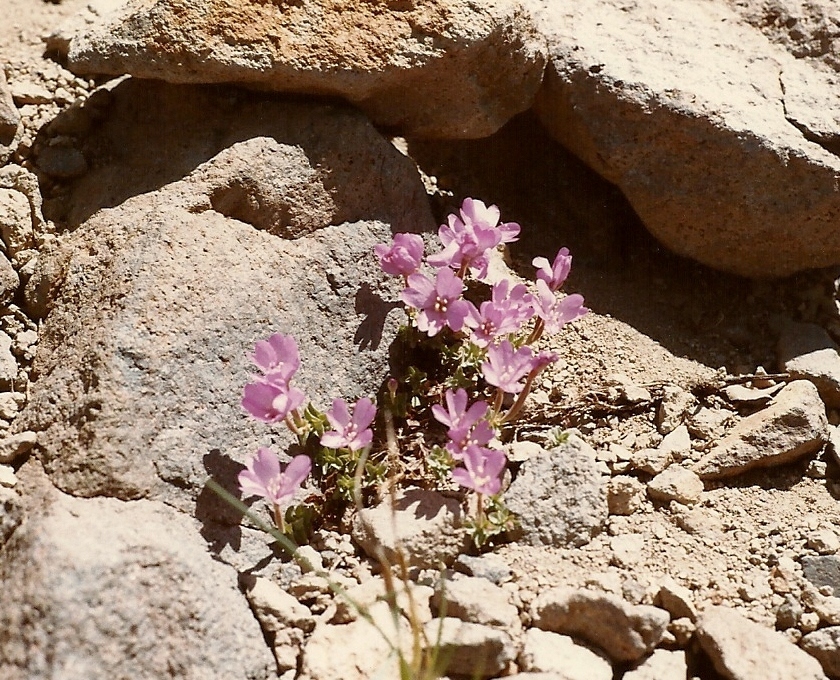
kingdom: Plantae
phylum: Tracheophyta
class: Magnoliopsida
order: Myrtales
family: Onagraceae
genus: Epilobium
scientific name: Epilobium obcordatum
